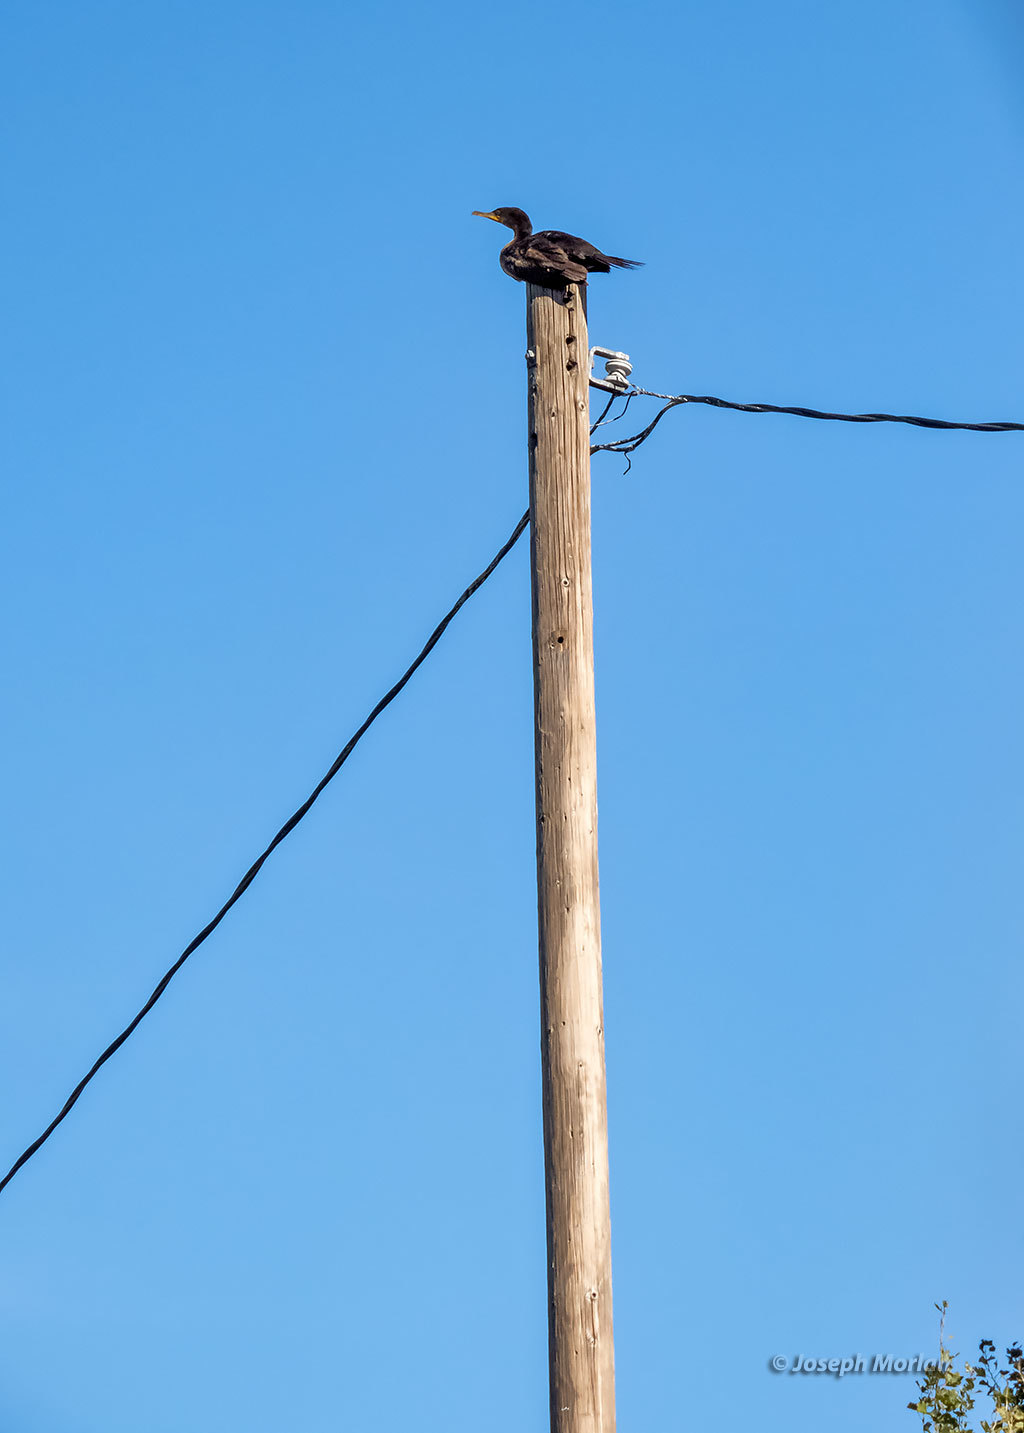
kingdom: Animalia
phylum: Chordata
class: Aves
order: Suliformes
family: Phalacrocoracidae
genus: Phalacrocorax
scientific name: Phalacrocorax auritus
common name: Double-crested cormorant
